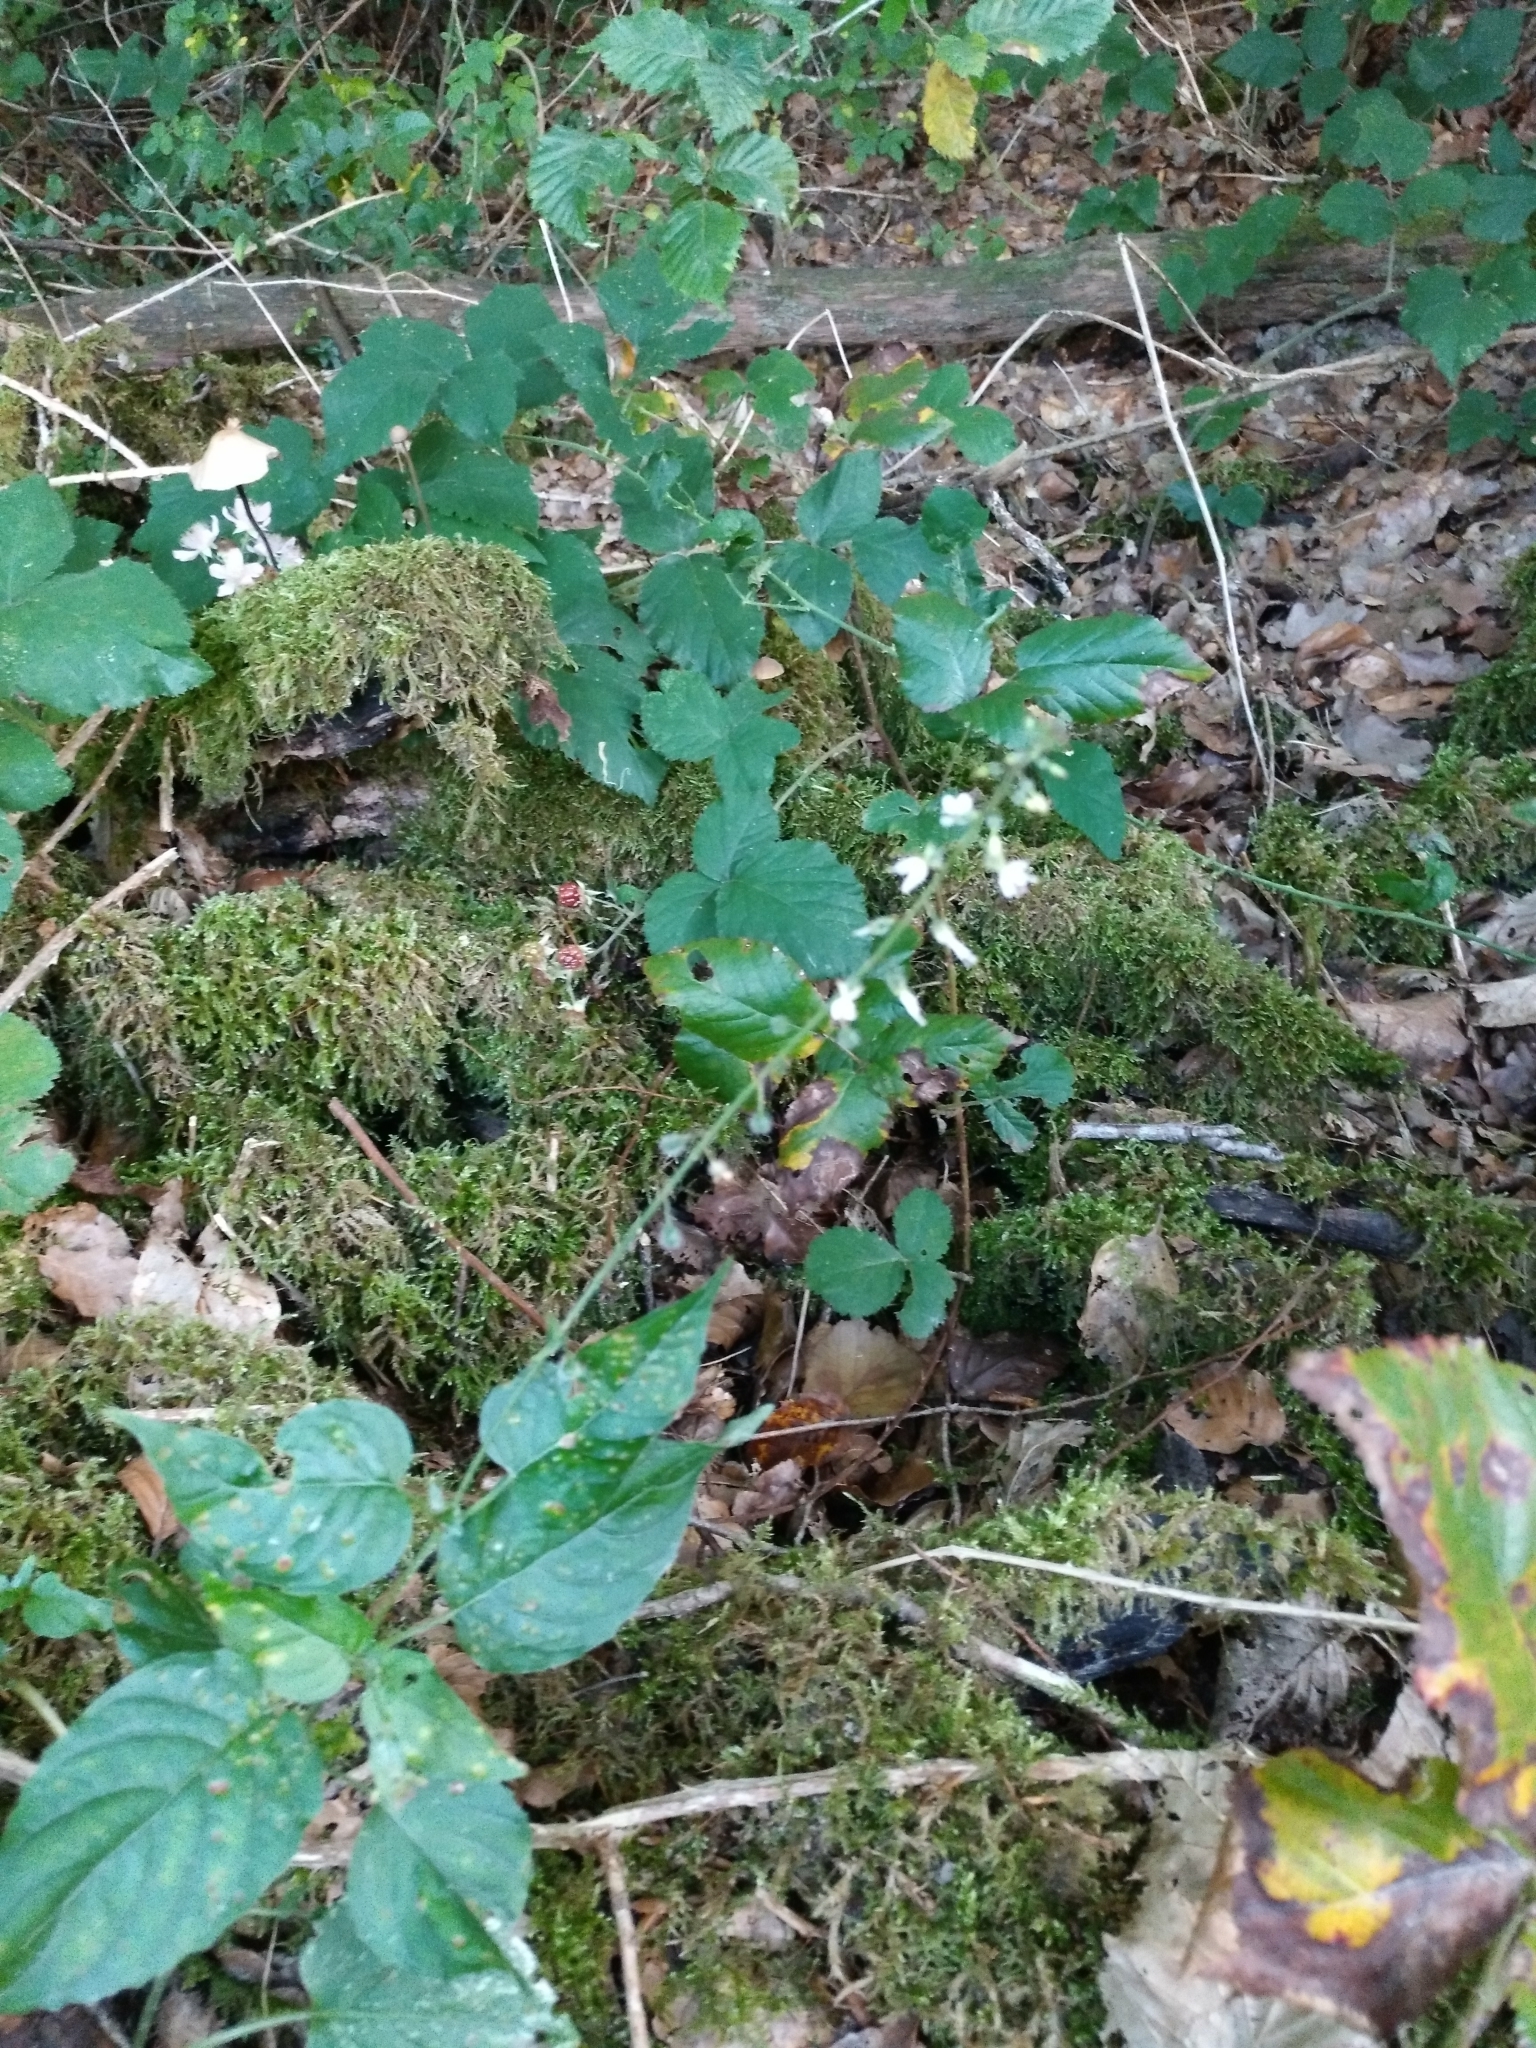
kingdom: Plantae
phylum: Tracheophyta
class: Magnoliopsida
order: Myrtales
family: Onagraceae
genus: Circaea
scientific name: Circaea lutetiana
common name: Enchanter's-nightshade
